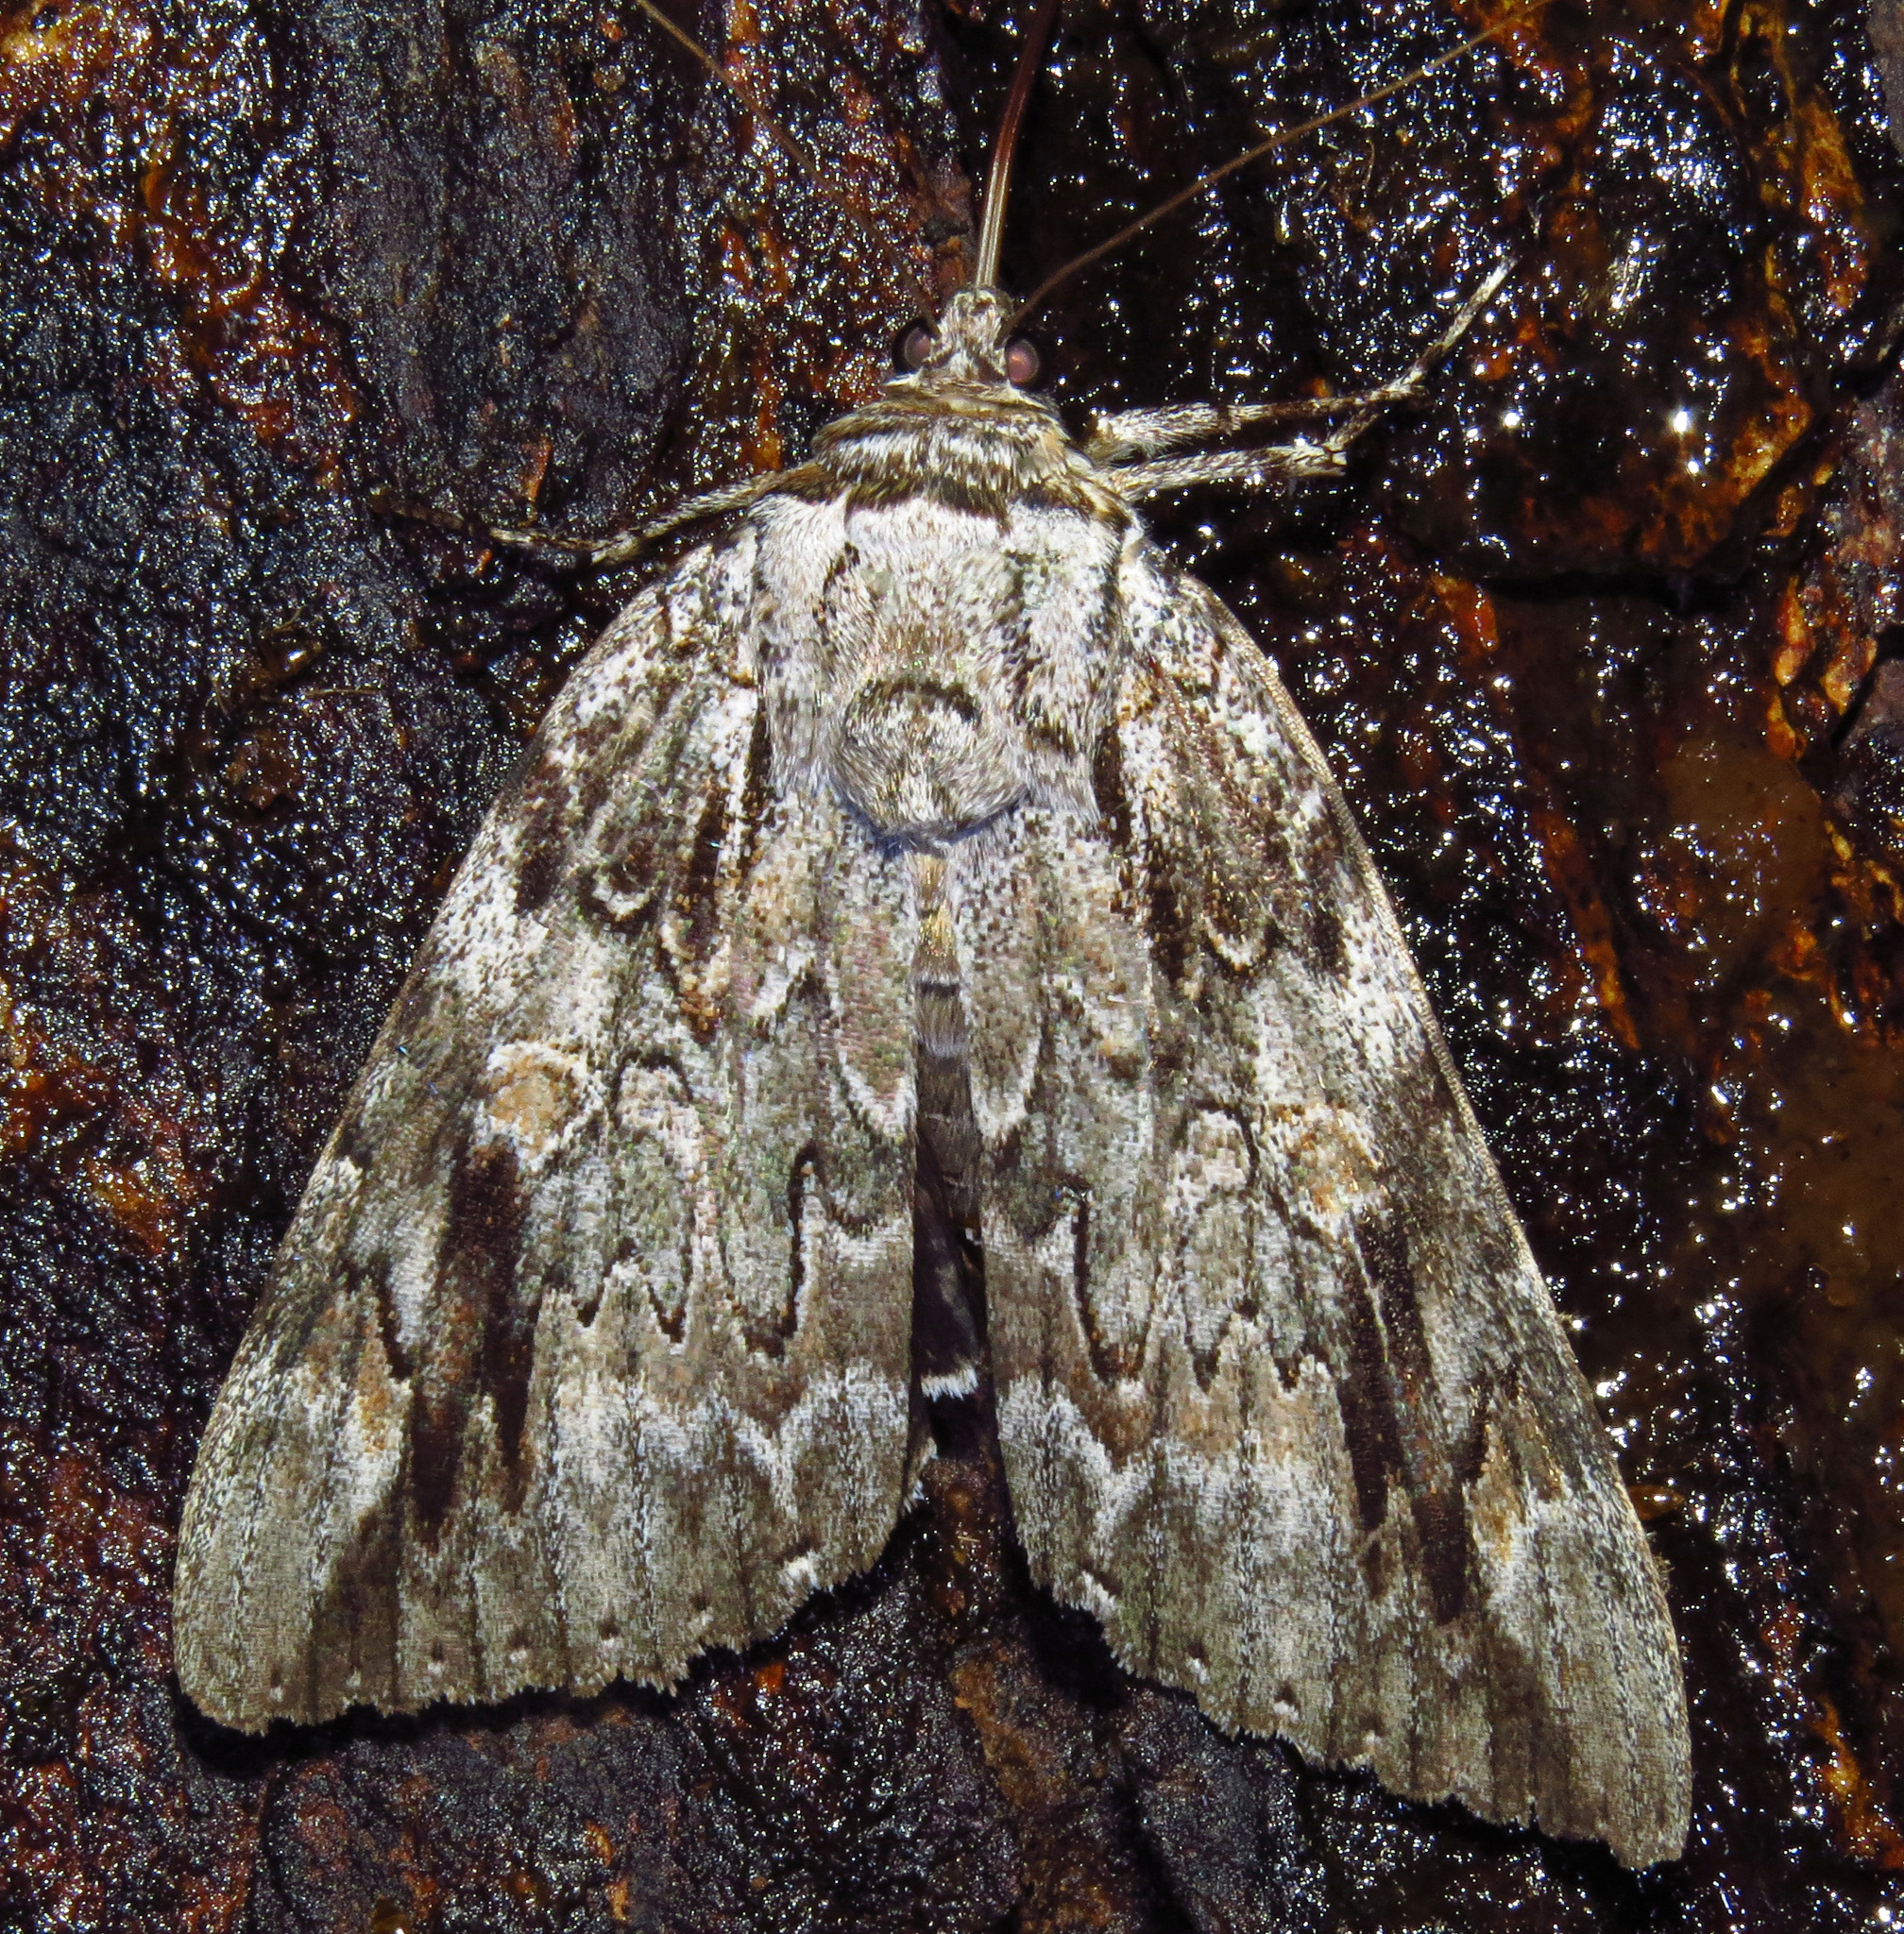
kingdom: Animalia
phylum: Arthropoda
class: Insecta
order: Lepidoptera
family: Erebidae
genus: Catocala
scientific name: Catocala maestosa
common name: Sad underwing
